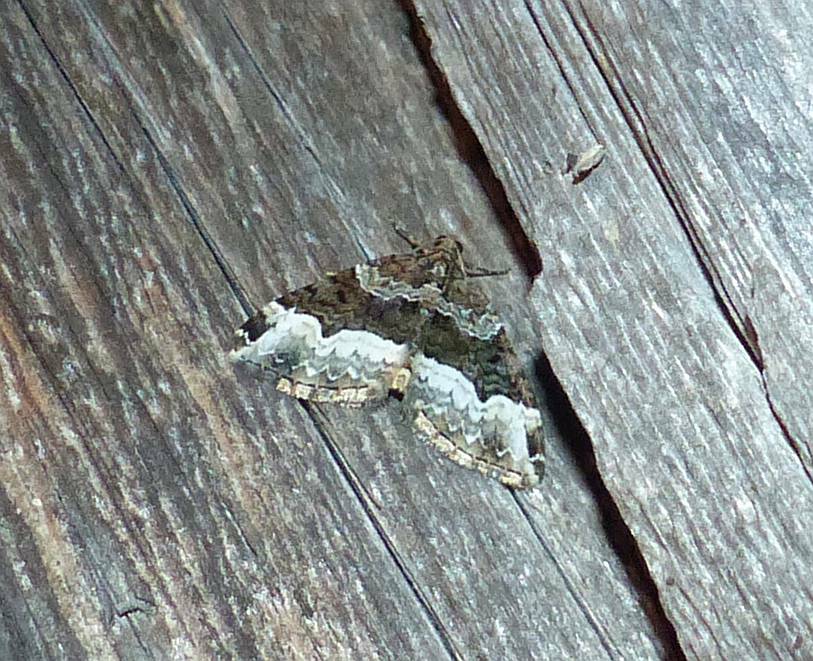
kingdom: Animalia
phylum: Arthropoda
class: Insecta
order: Lepidoptera
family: Geometridae
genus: Euphyia
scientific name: Euphyia intermediata
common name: Sharp-angled carpet
